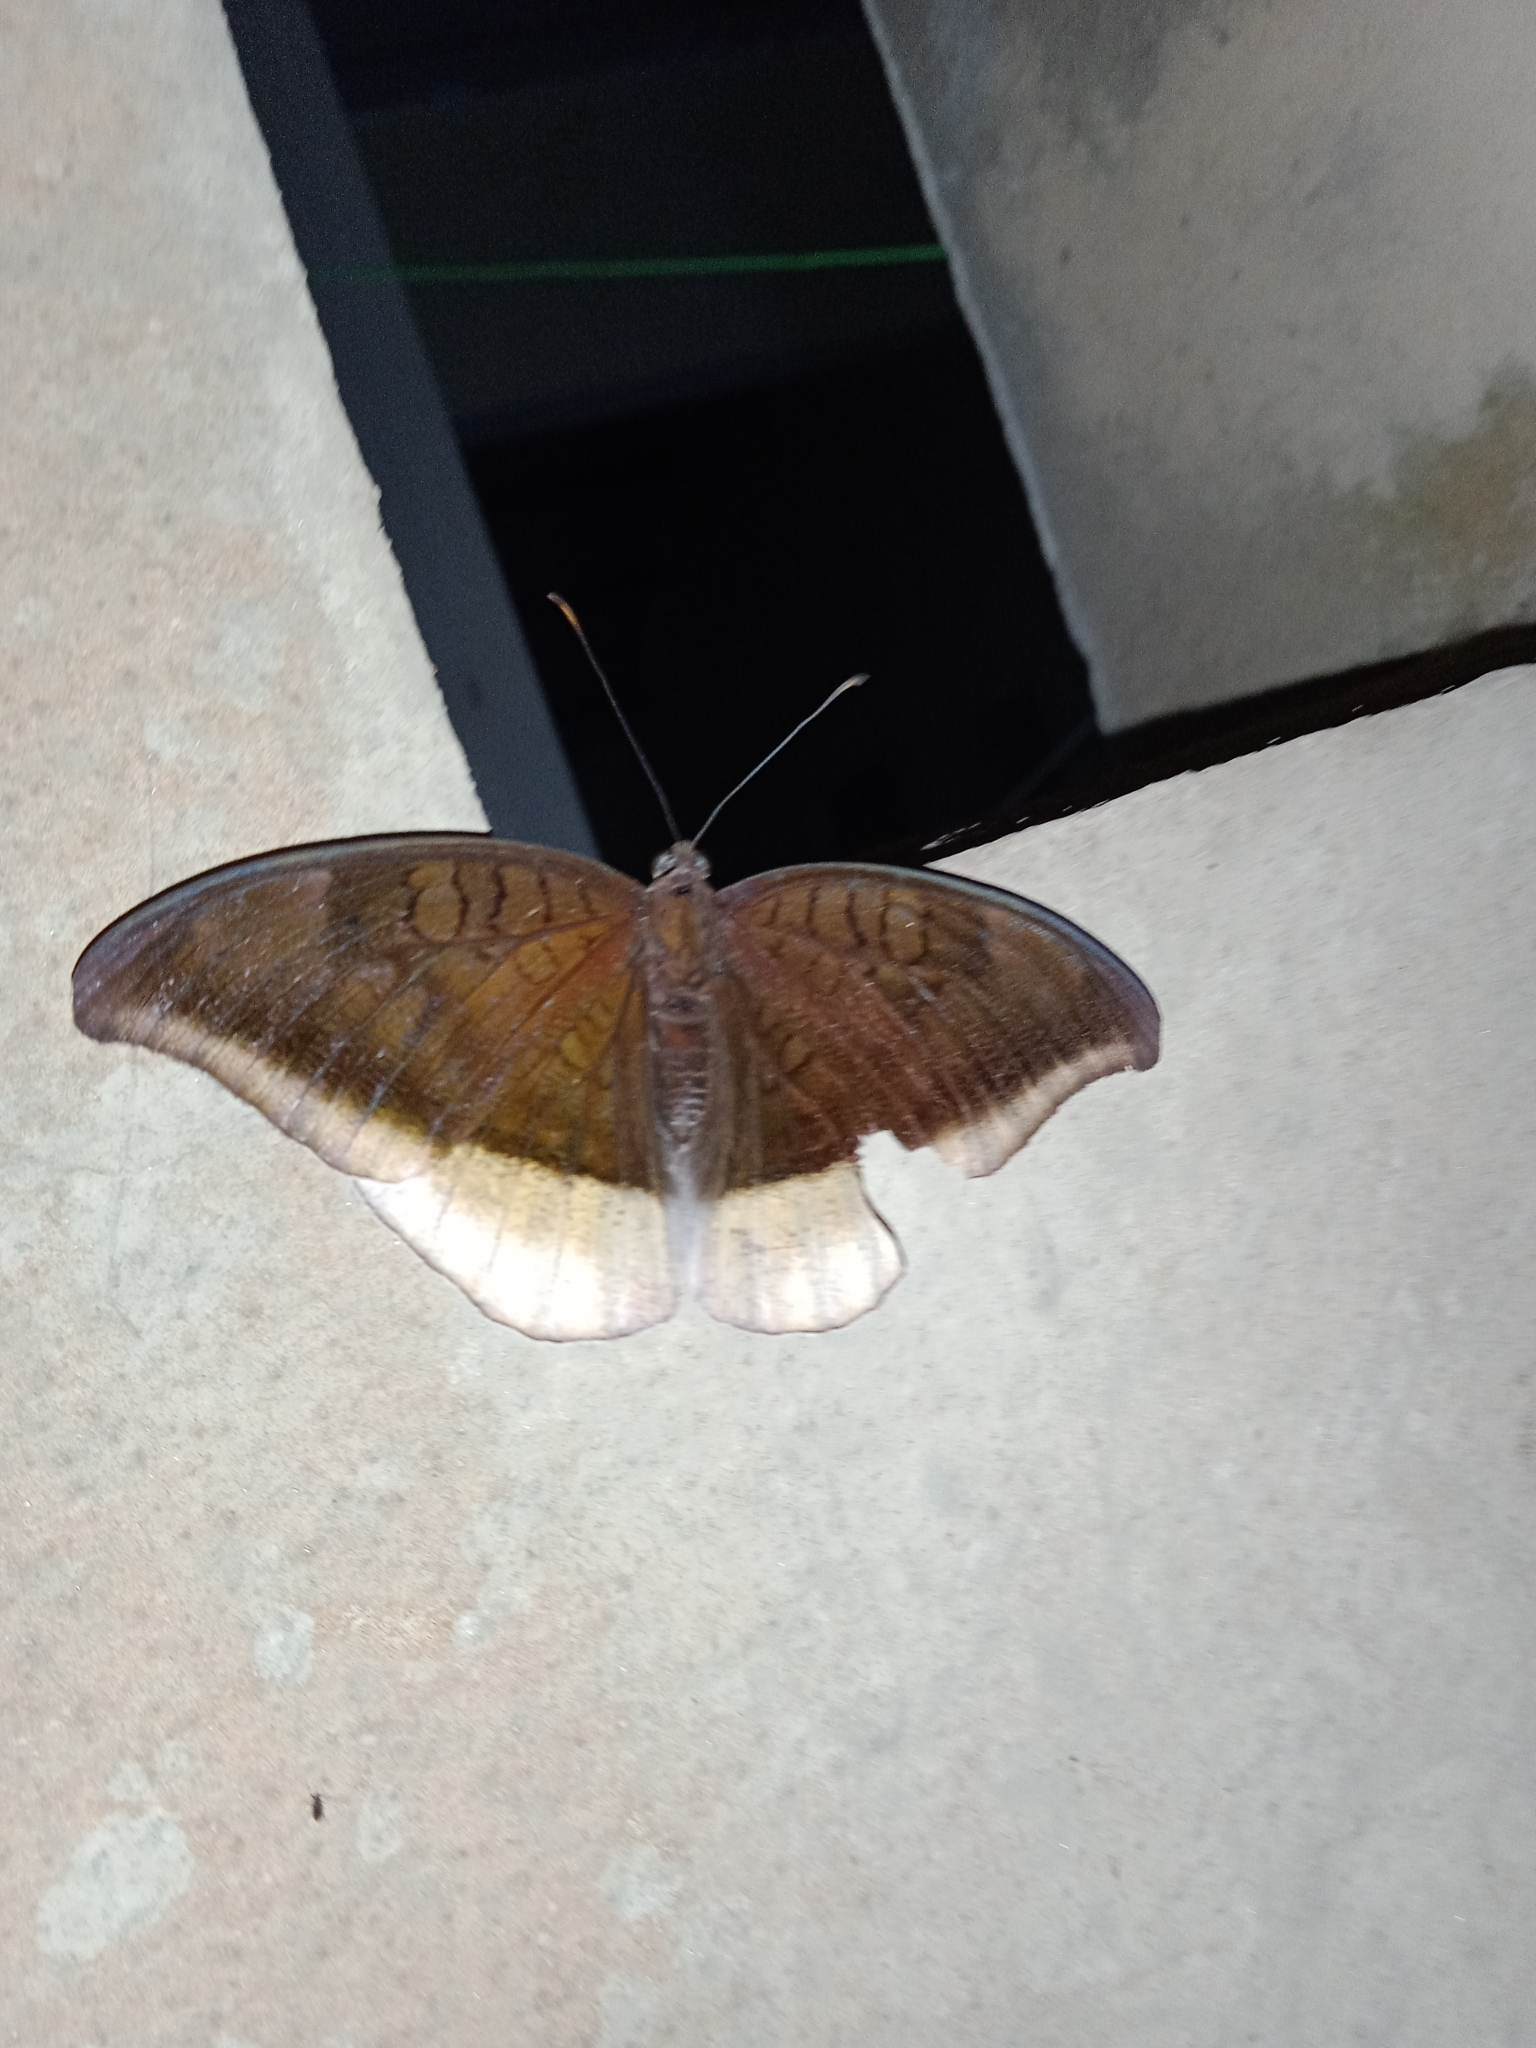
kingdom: Animalia
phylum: Arthropoda
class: Insecta
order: Lepidoptera
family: Nymphalidae
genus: Tanaecia
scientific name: Tanaecia lepidea
